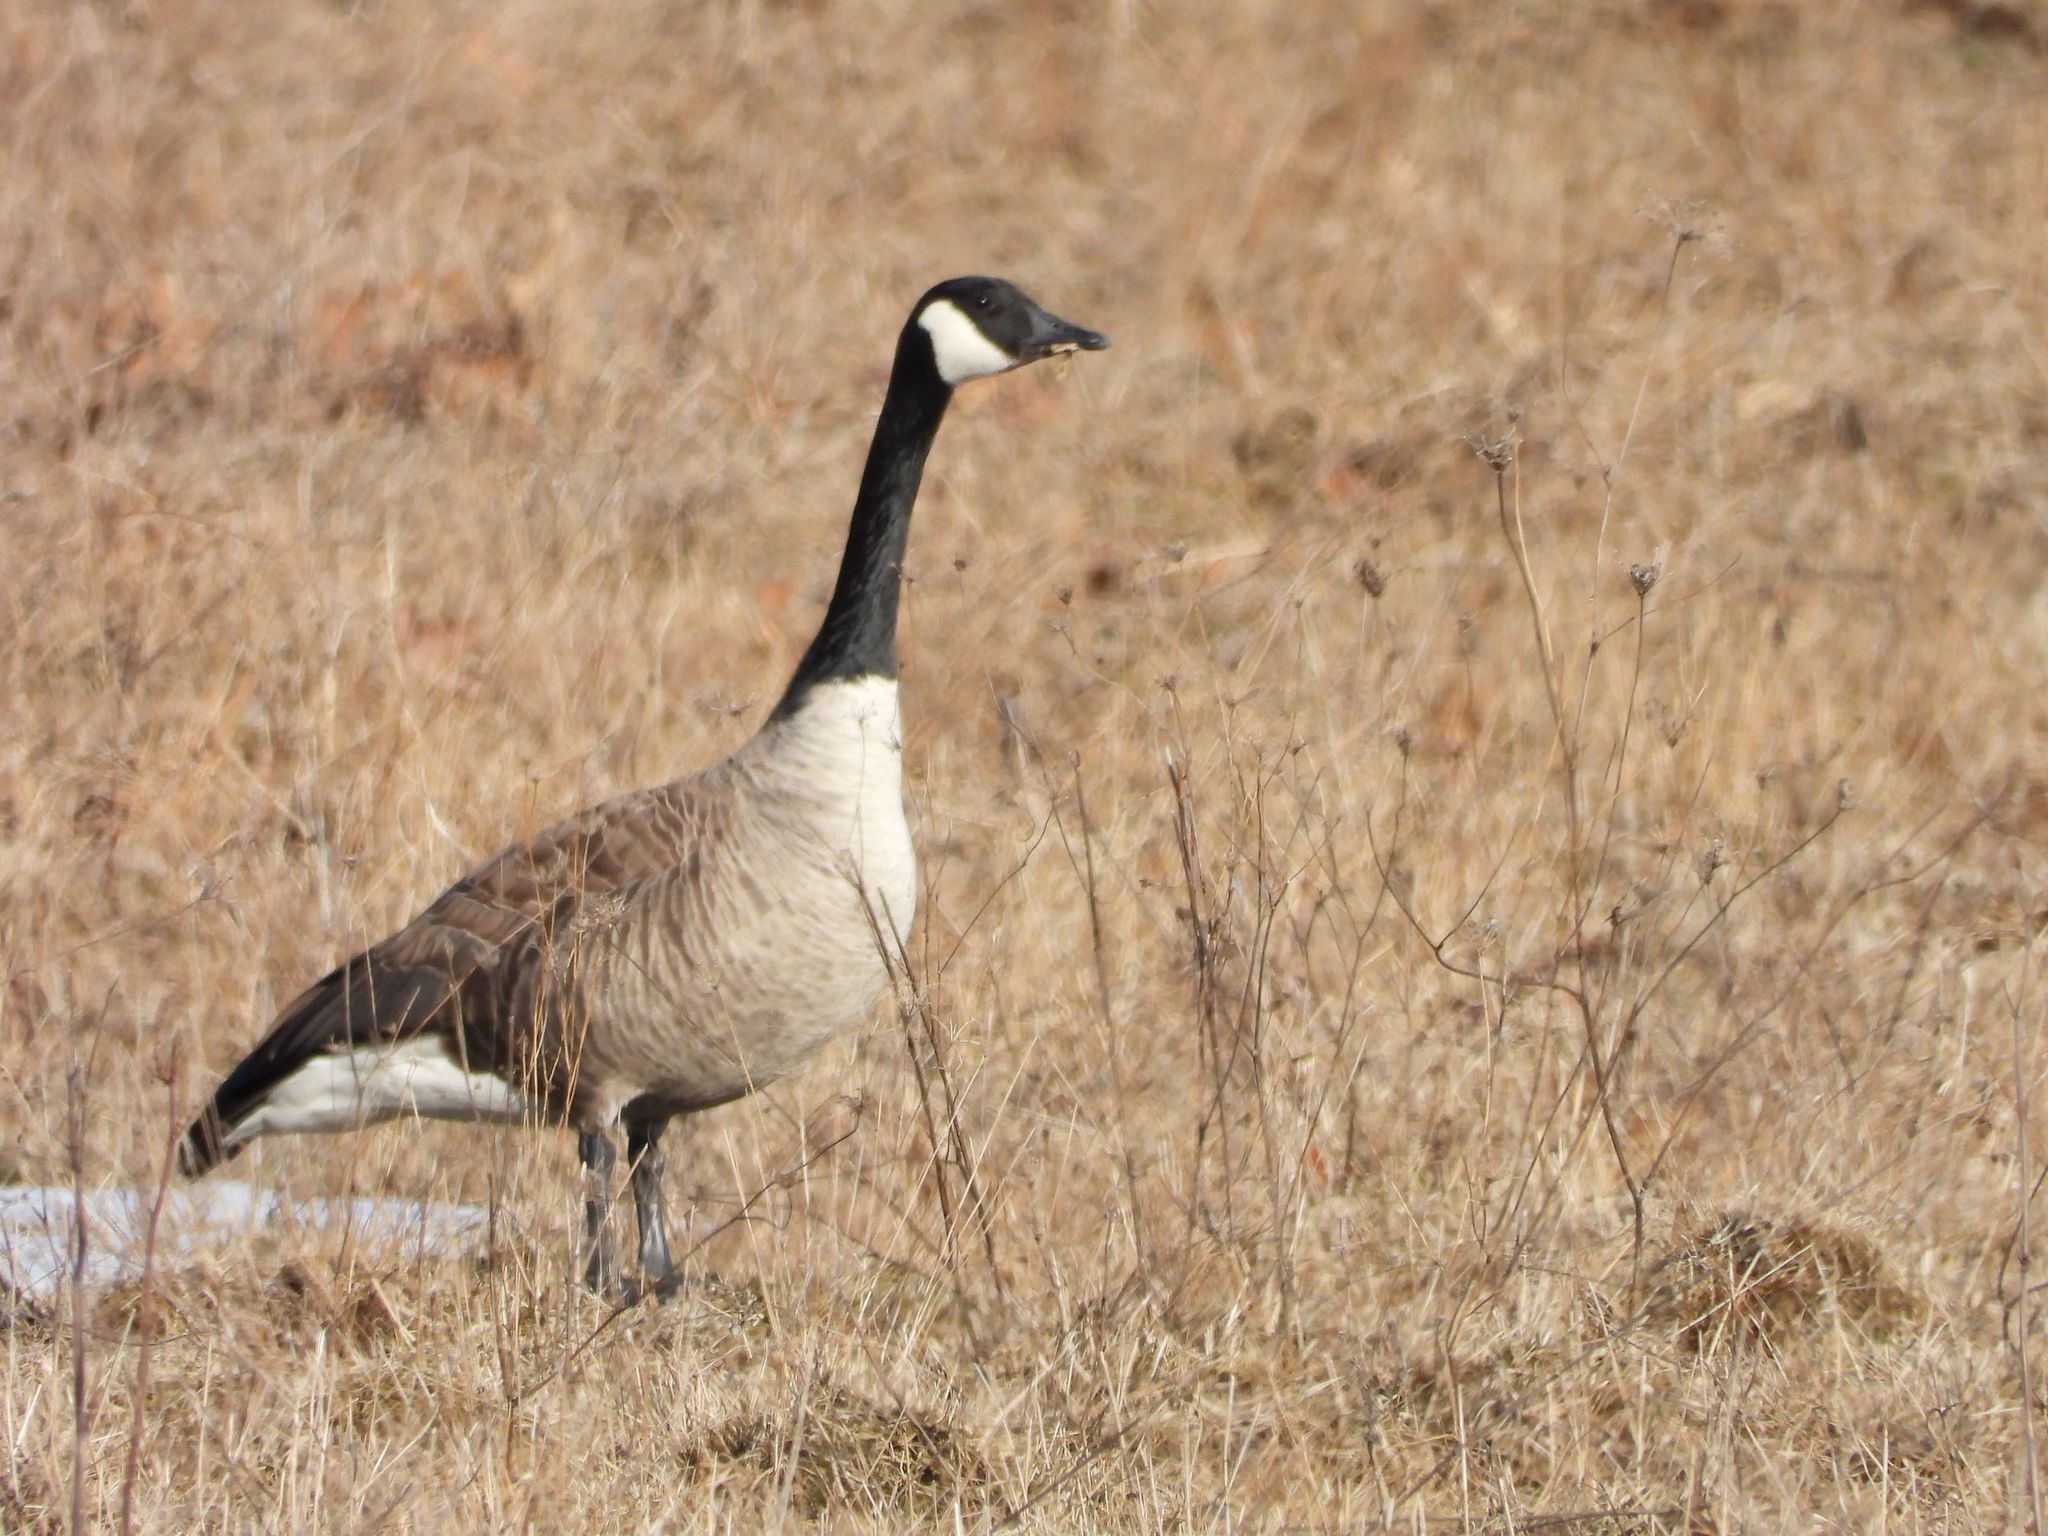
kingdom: Animalia
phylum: Chordata
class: Aves
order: Anseriformes
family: Anatidae
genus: Branta
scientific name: Branta canadensis
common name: Canada goose
